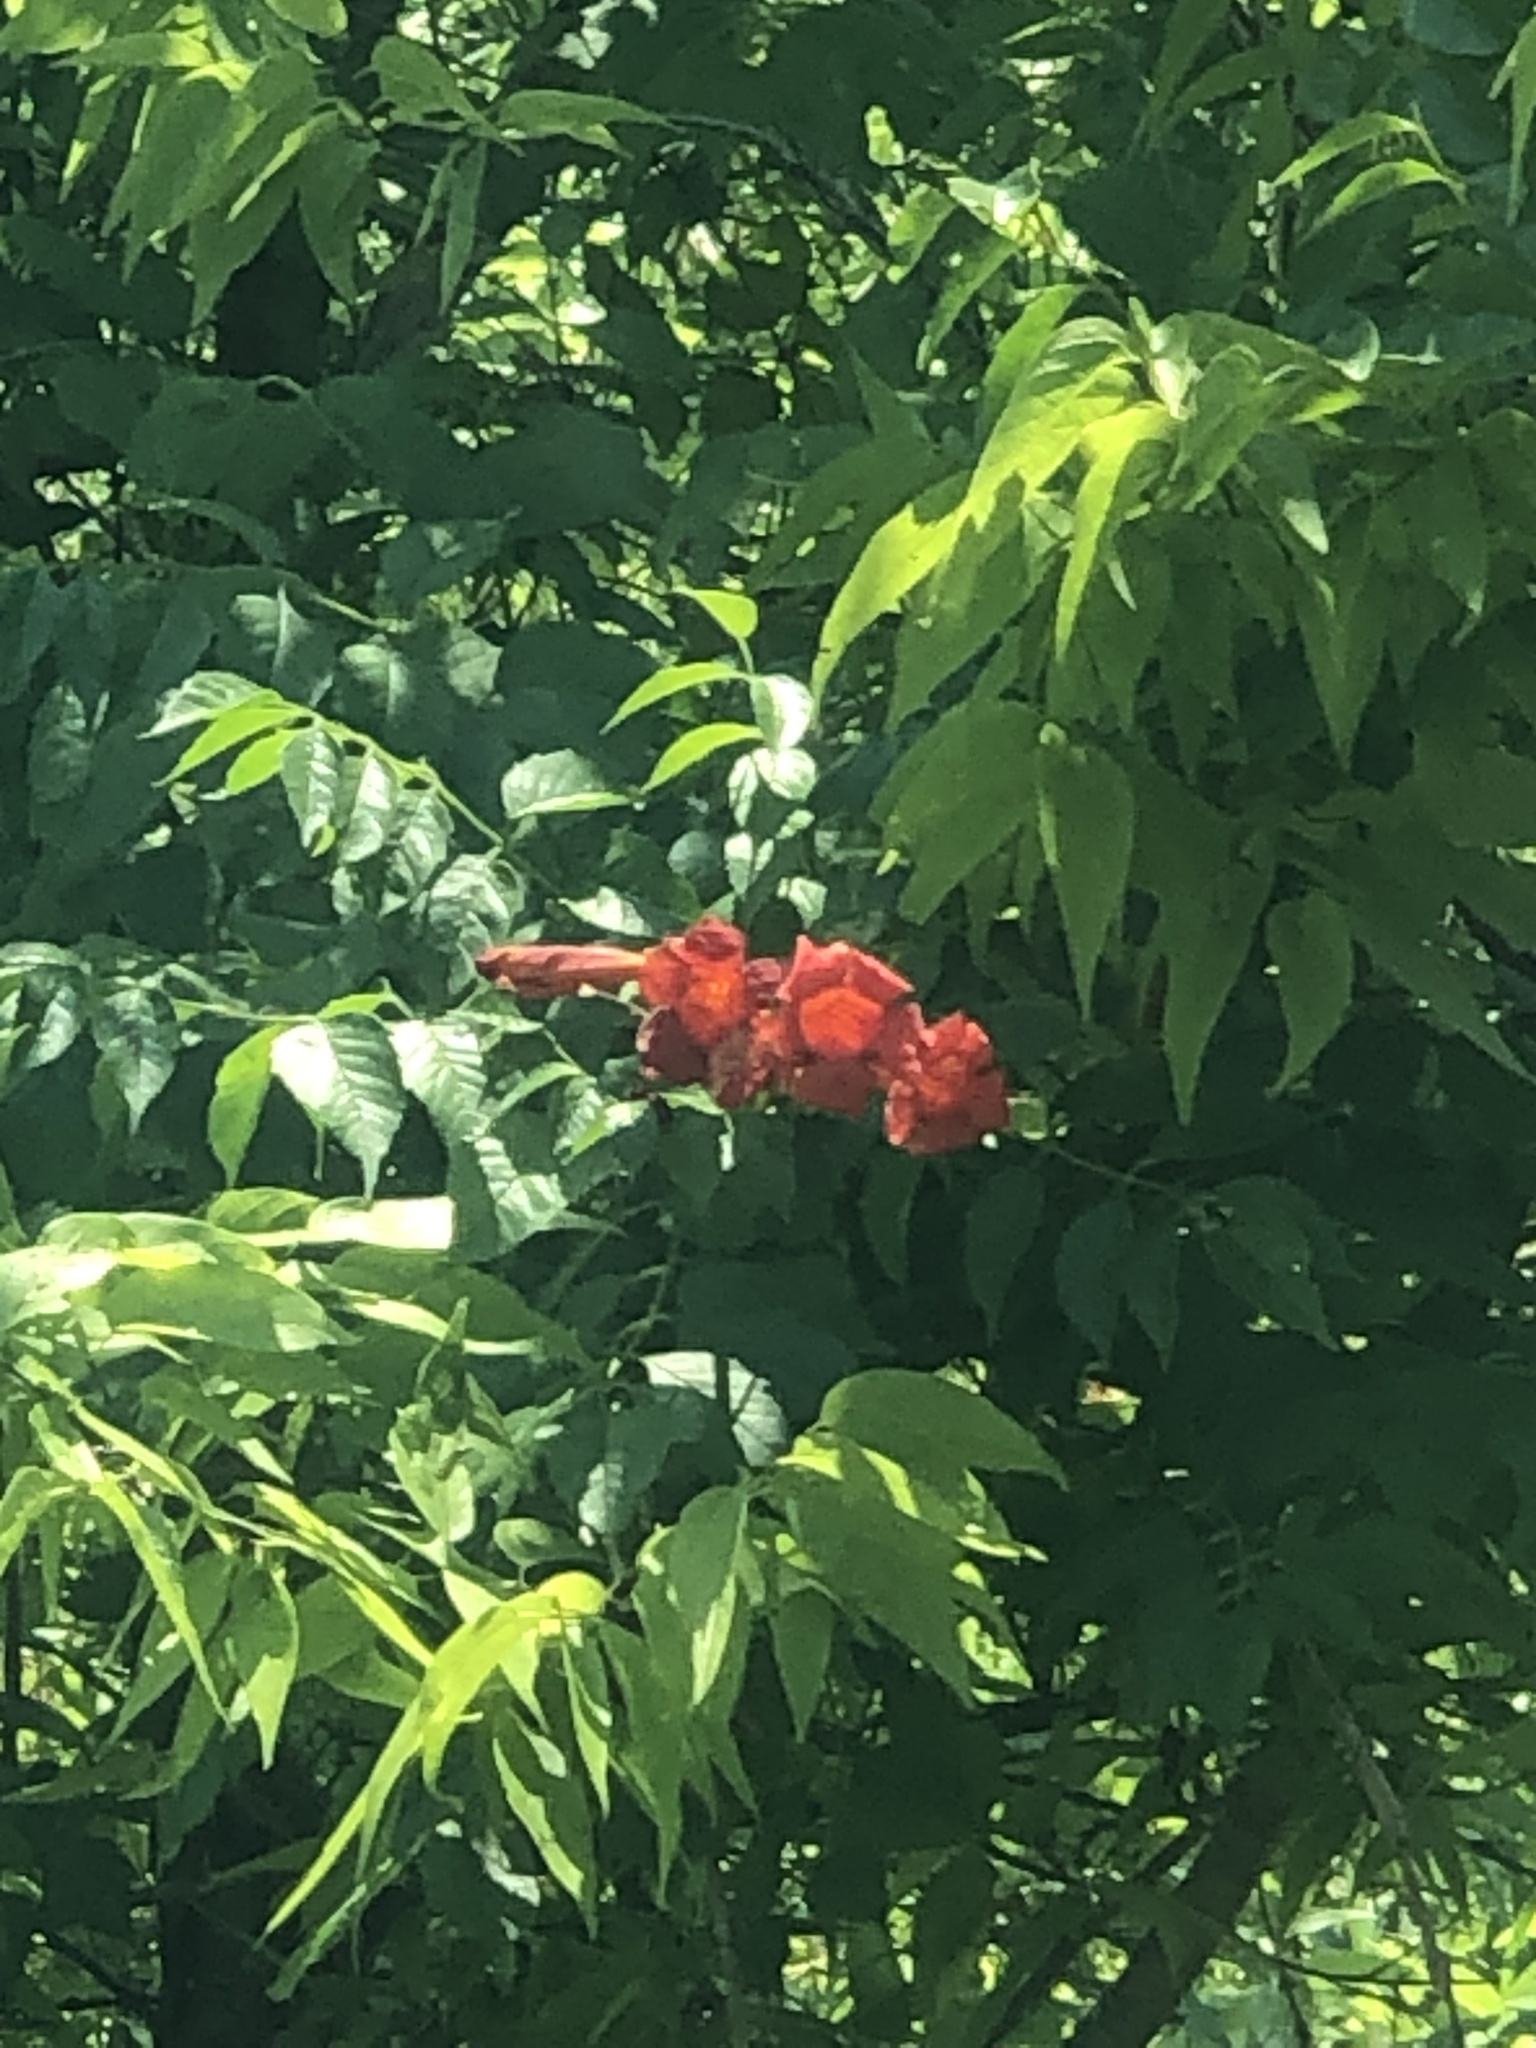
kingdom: Plantae
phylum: Tracheophyta
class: Magnoliopsida
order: Lamiales
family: Bignoniaceae
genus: Campsis
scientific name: Campsis radicans
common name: Trumpet-creeper
